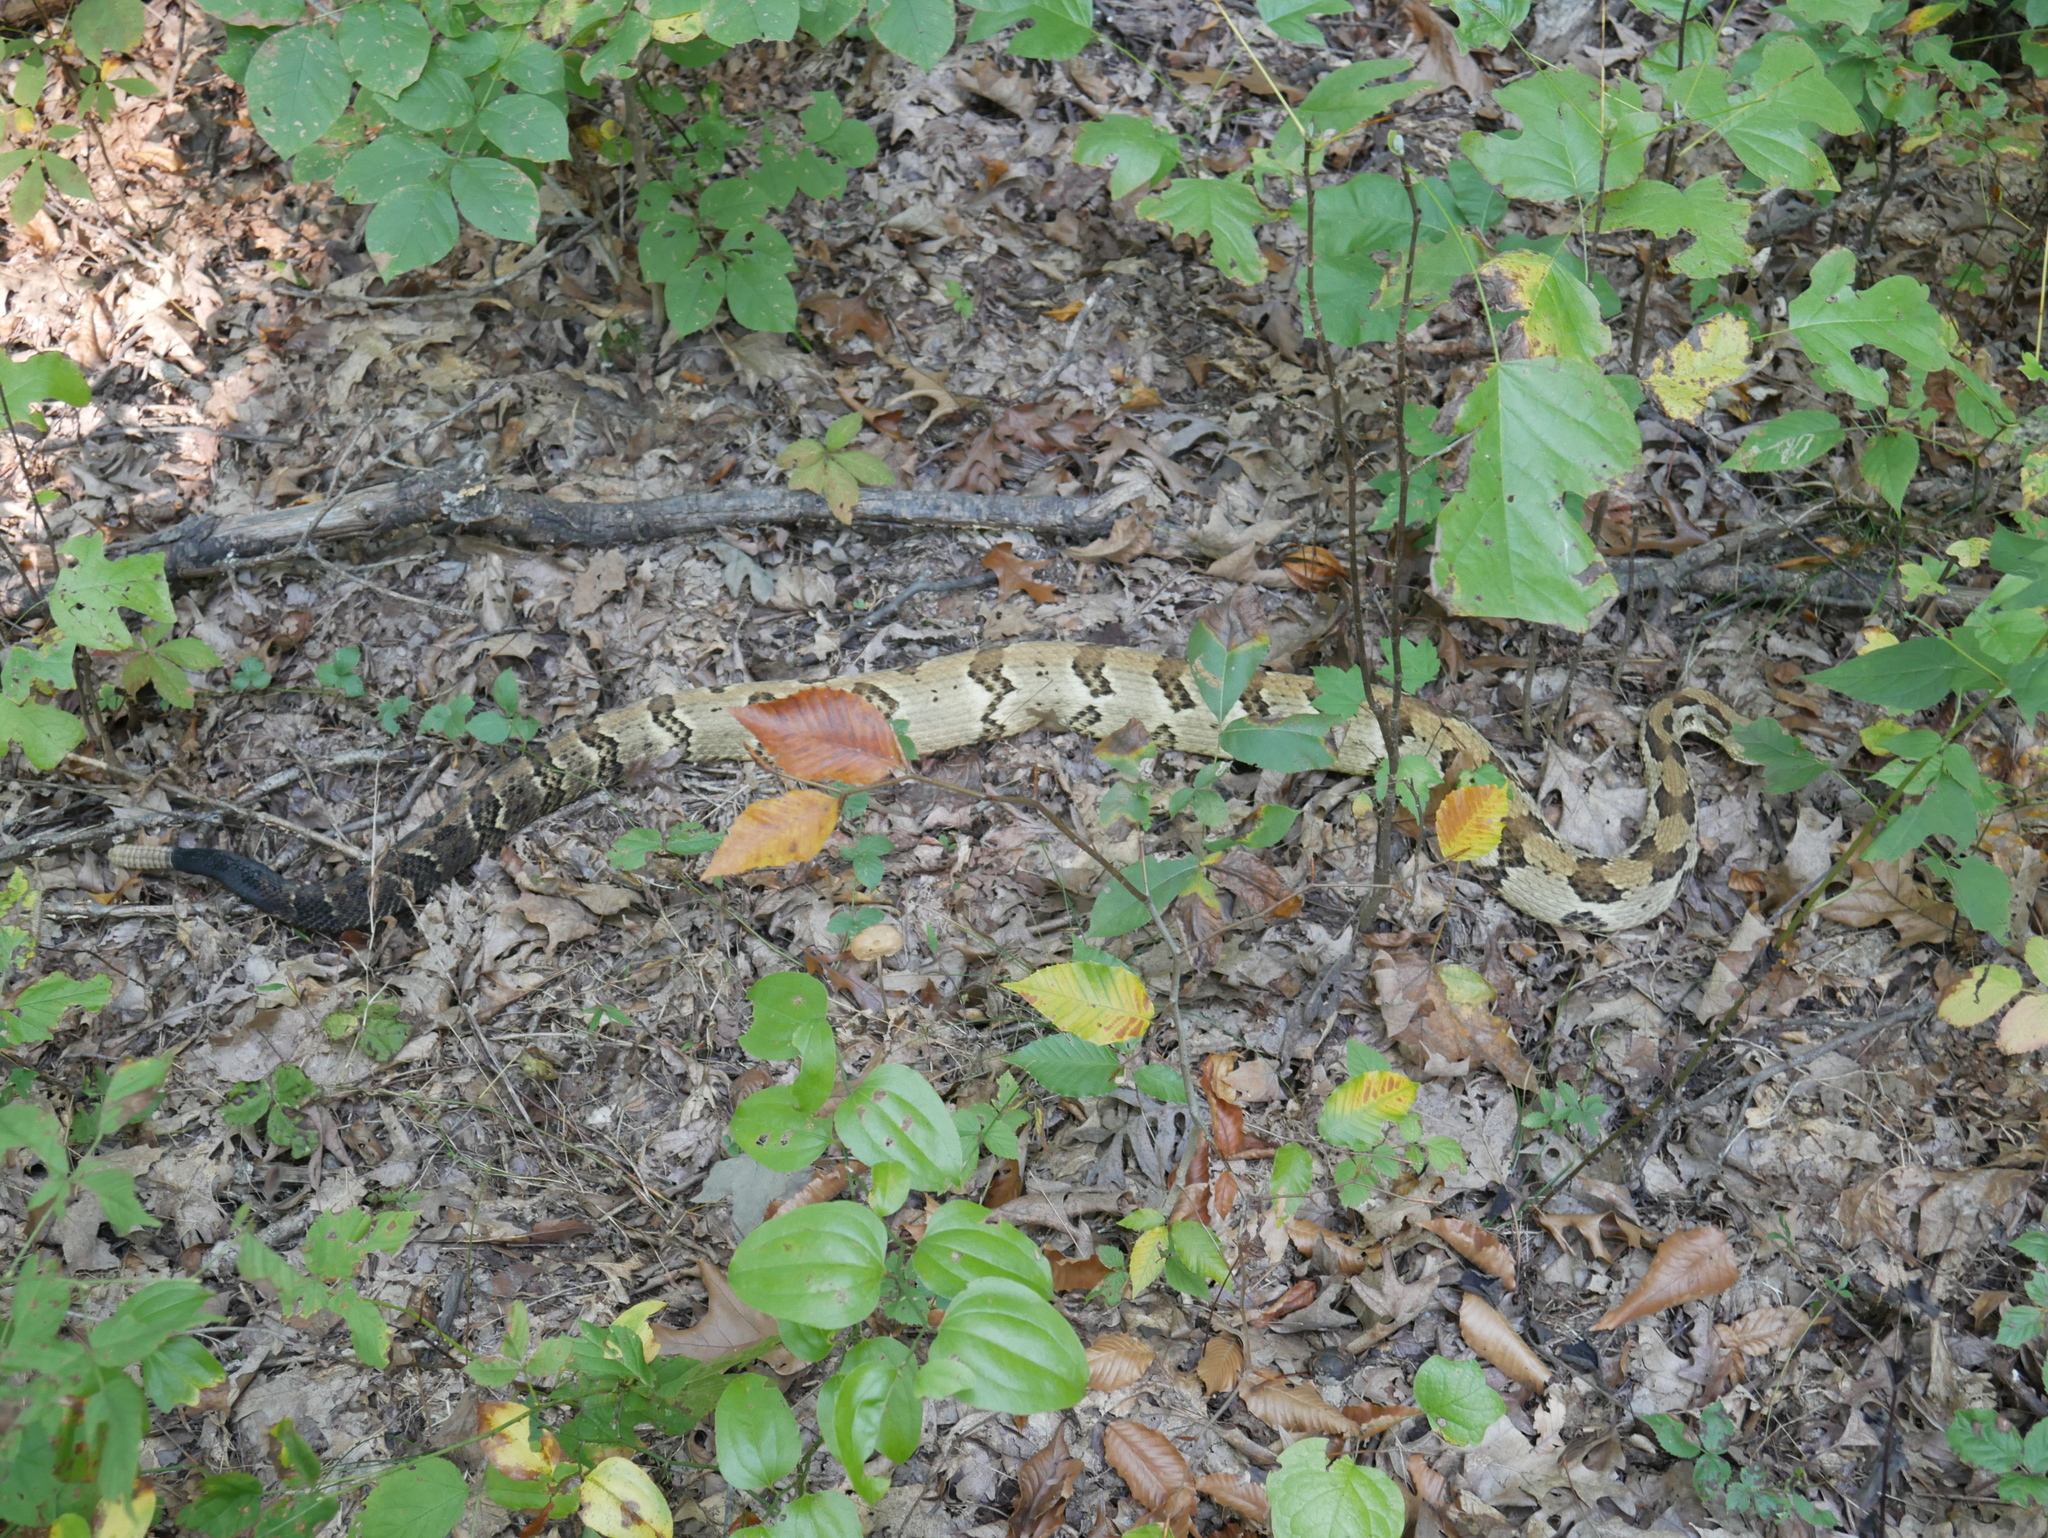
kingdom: Animalia
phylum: Chordata
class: Squamata
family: Viperidae
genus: Crotalus
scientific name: Crotalus horridus
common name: Timber rattlesnake
